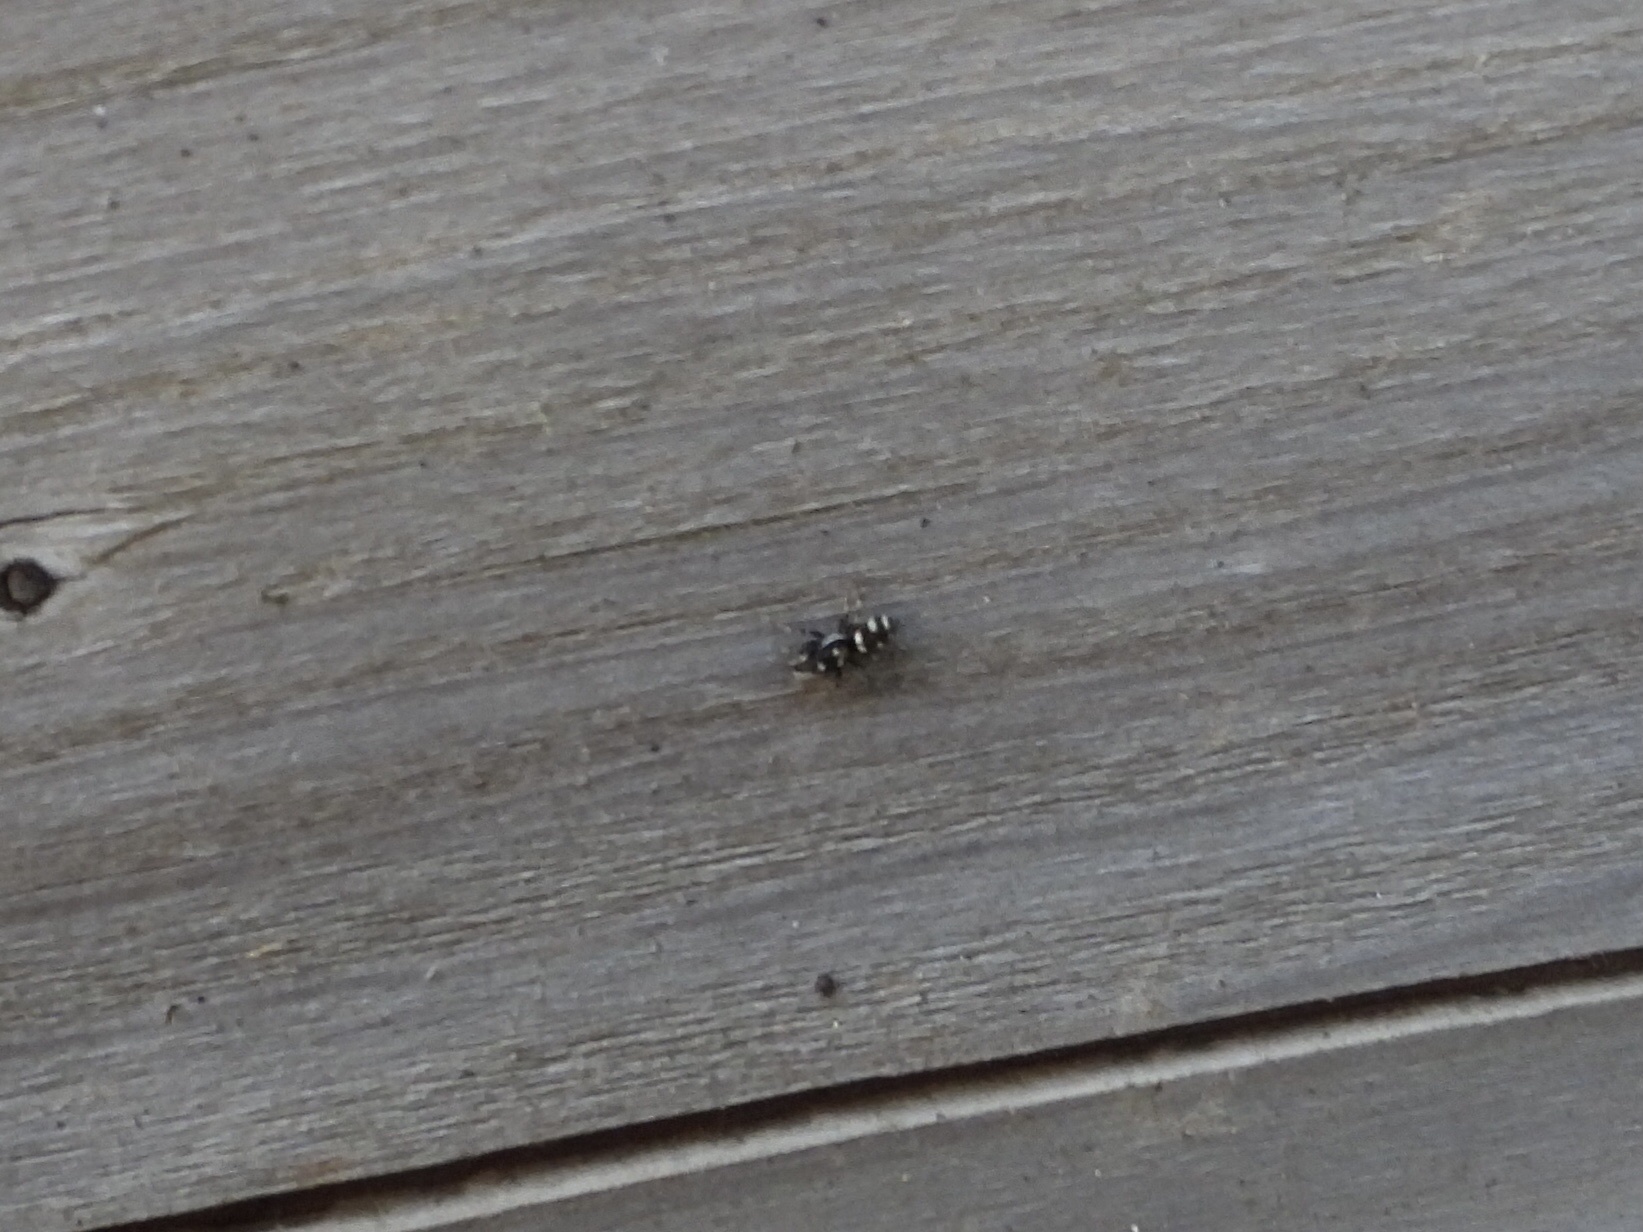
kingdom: Animalia
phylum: Arthropoda
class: Arachnida
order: Araneae
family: Salticidae
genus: Salticus
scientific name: Salticus scenicus
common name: Zebra jumper
